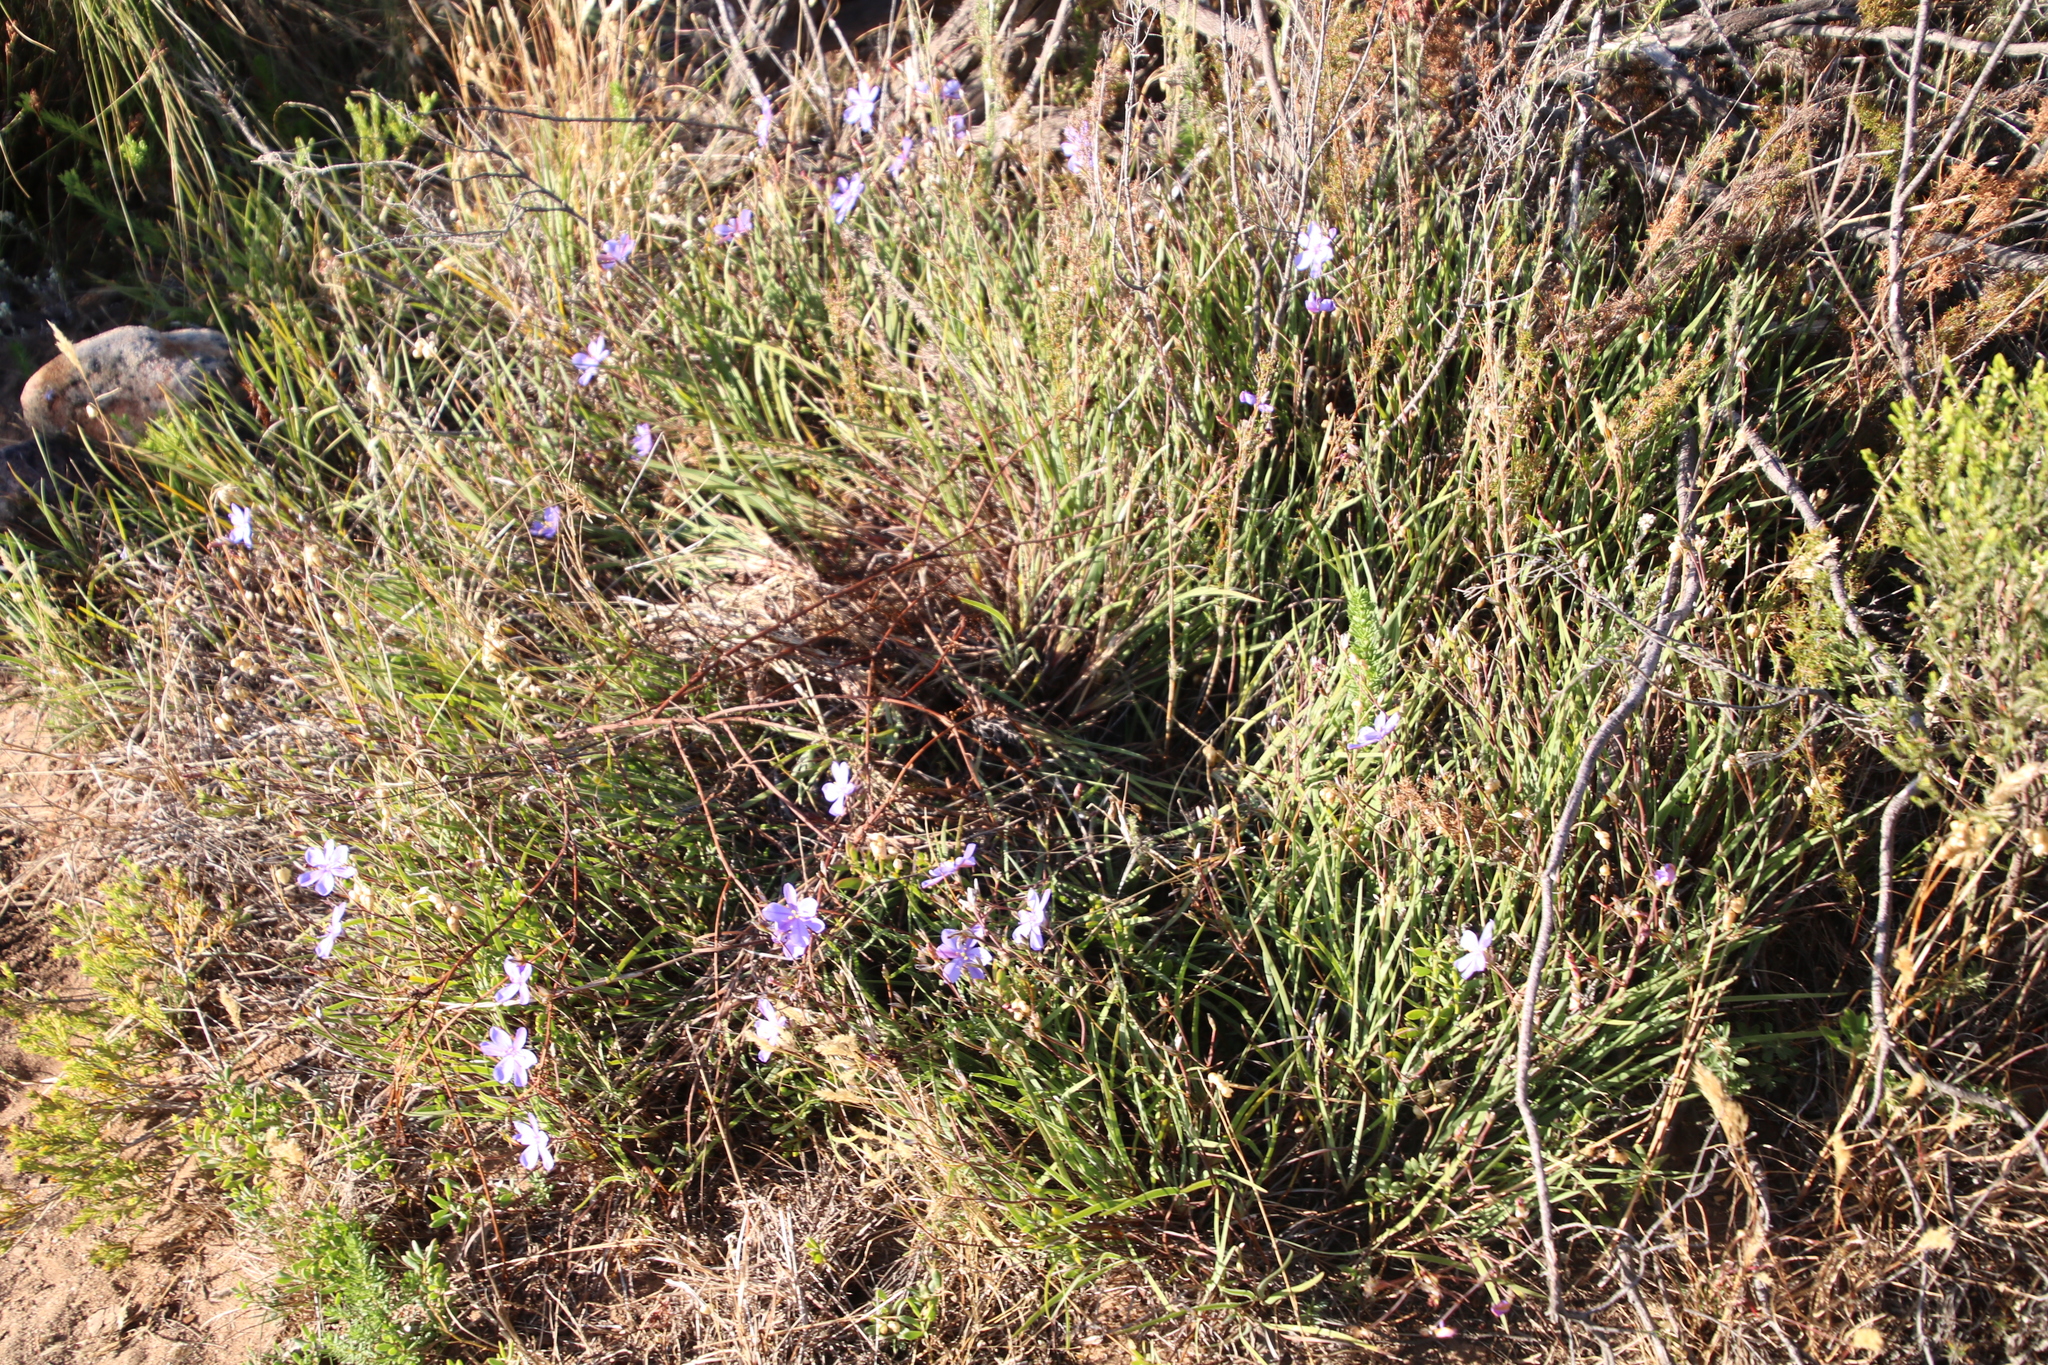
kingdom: Plantae
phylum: Tracheophyta
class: Liliopsida
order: Asparagales
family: Iridaceae
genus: Aristea
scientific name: Aristea africana
